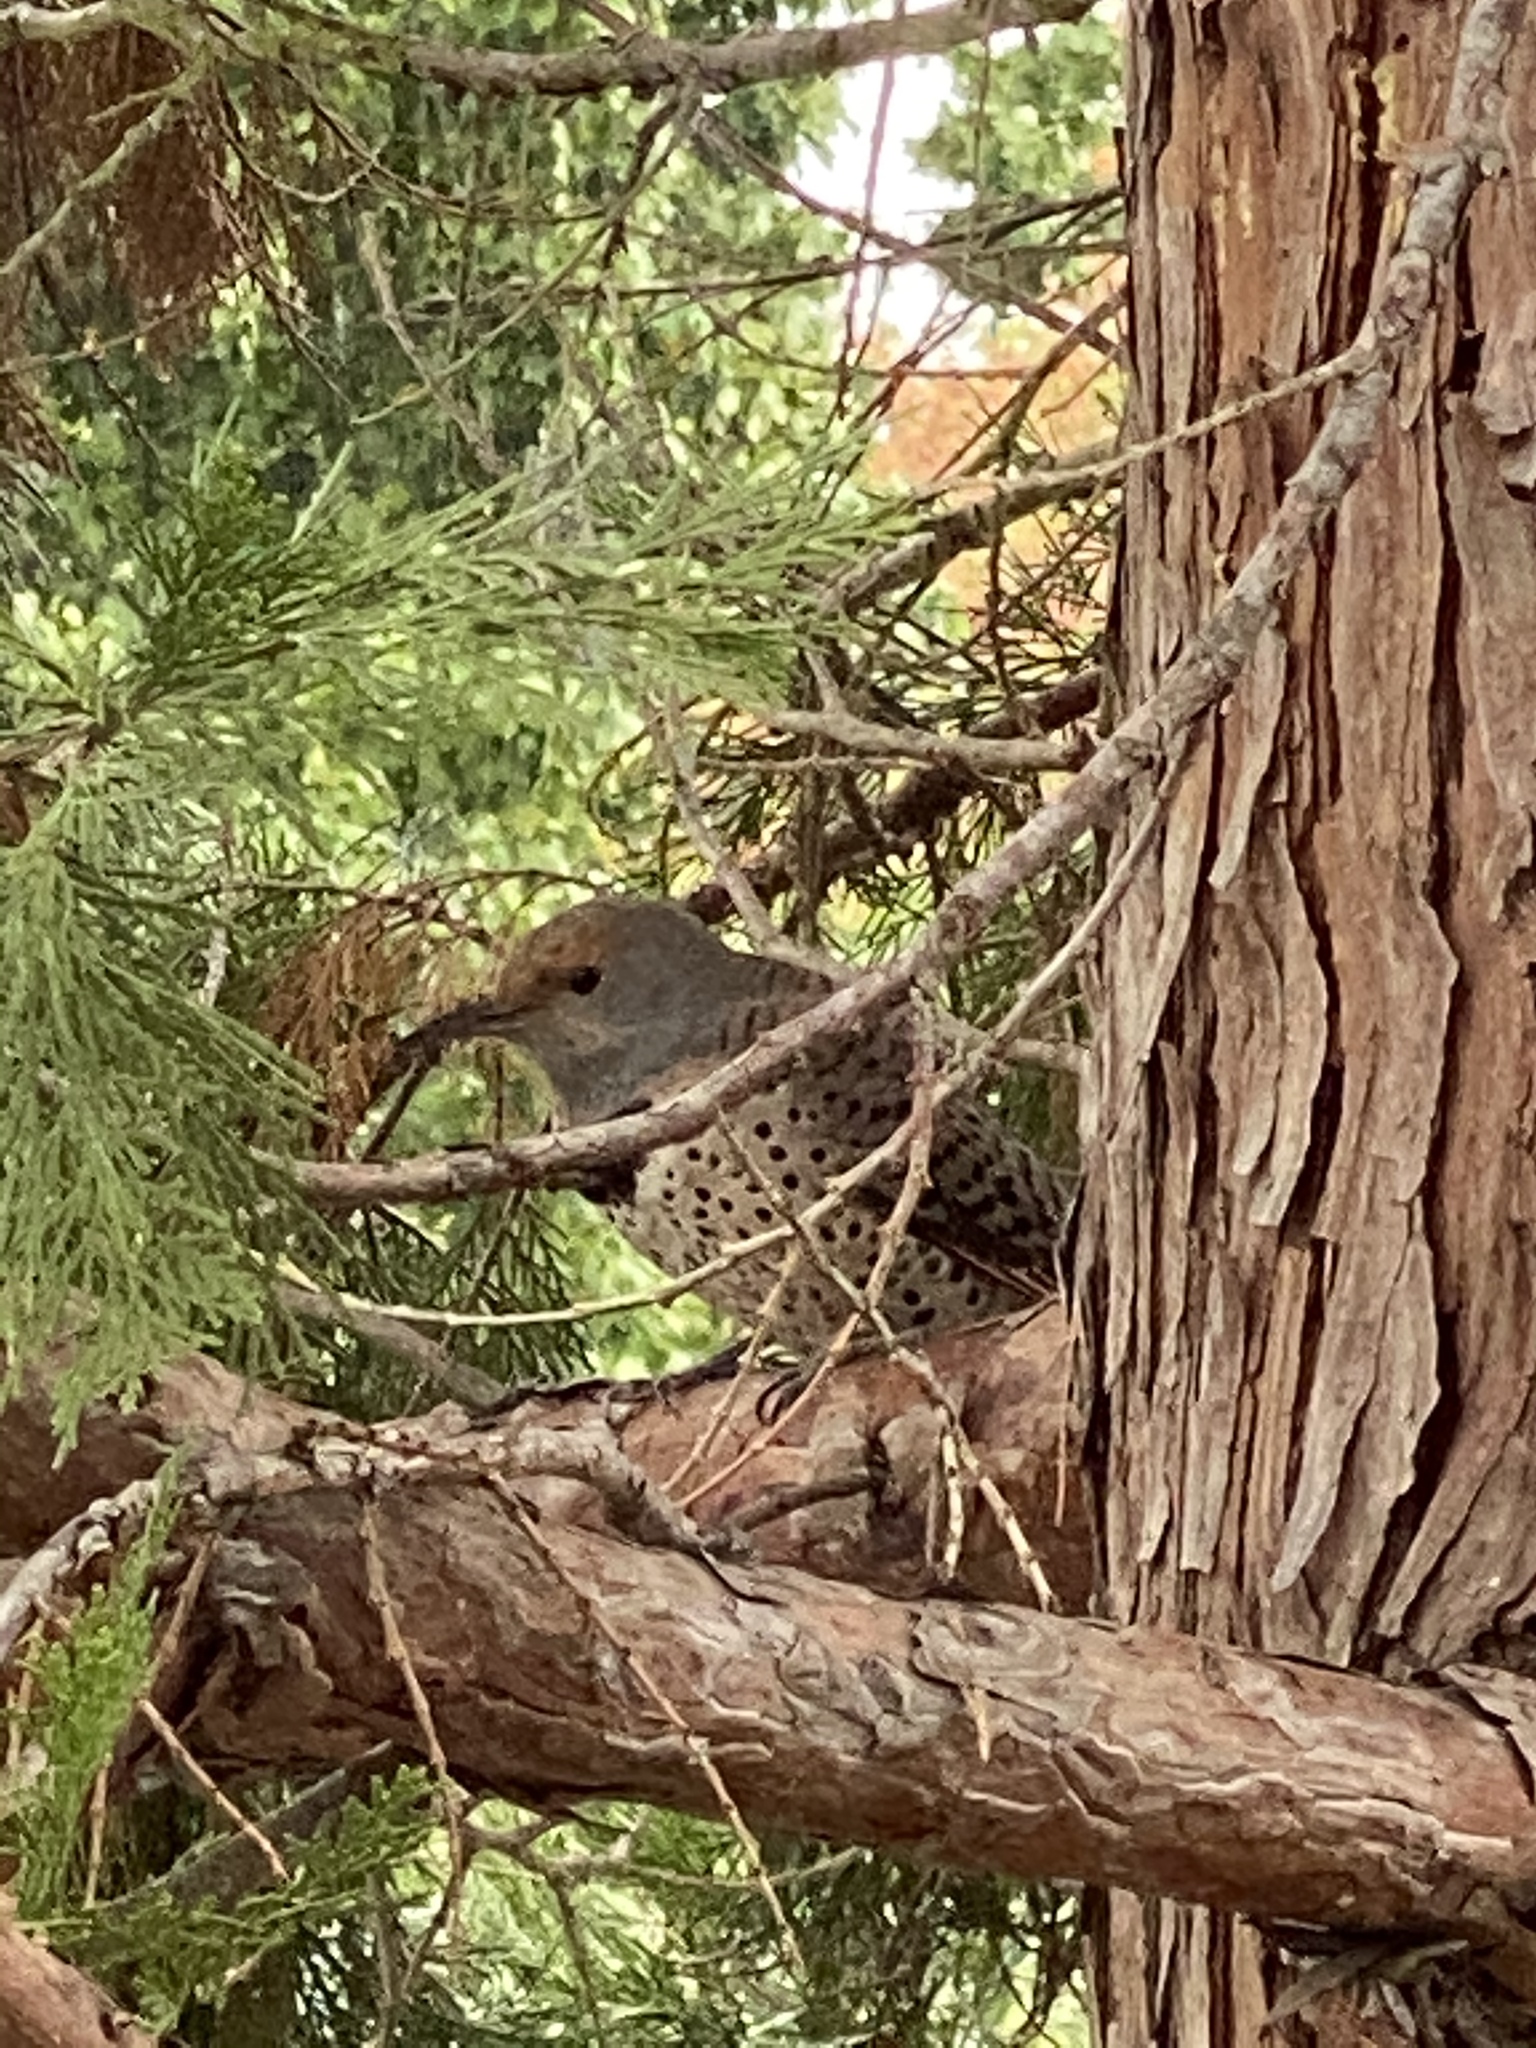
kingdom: Animalia
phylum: Chordata
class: Aves
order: Piciformes
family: Picidae
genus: Colaptes
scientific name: Colaptes auratus
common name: Northern flicker
